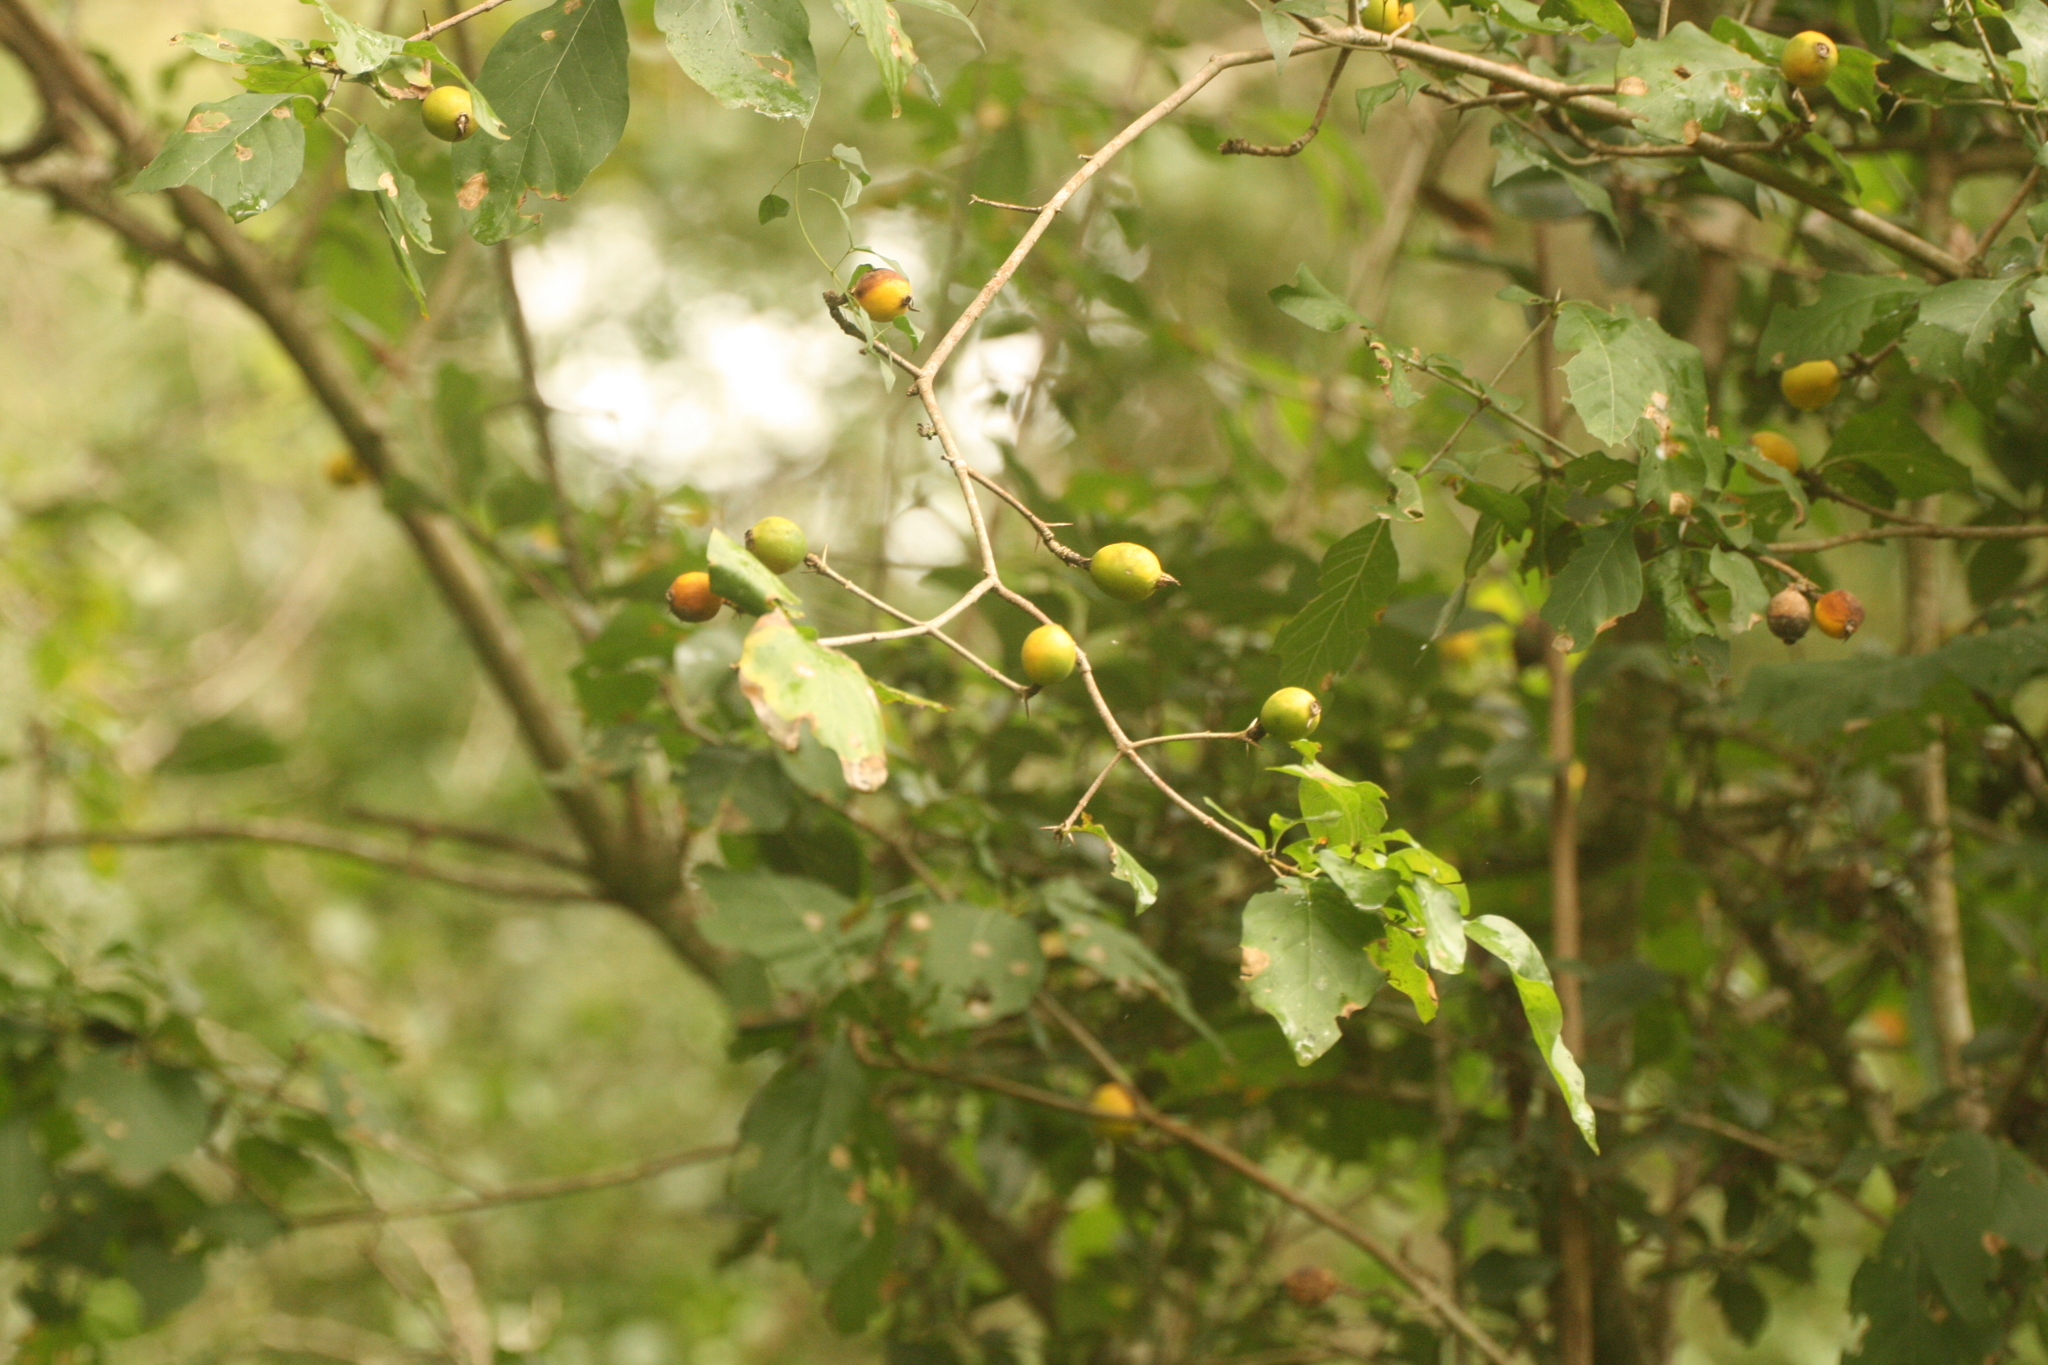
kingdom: Plantae
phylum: Tracheophyta
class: Magnoliopsida
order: Gentianales
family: Rubiaceae
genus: Randia
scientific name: Randia heteromera
